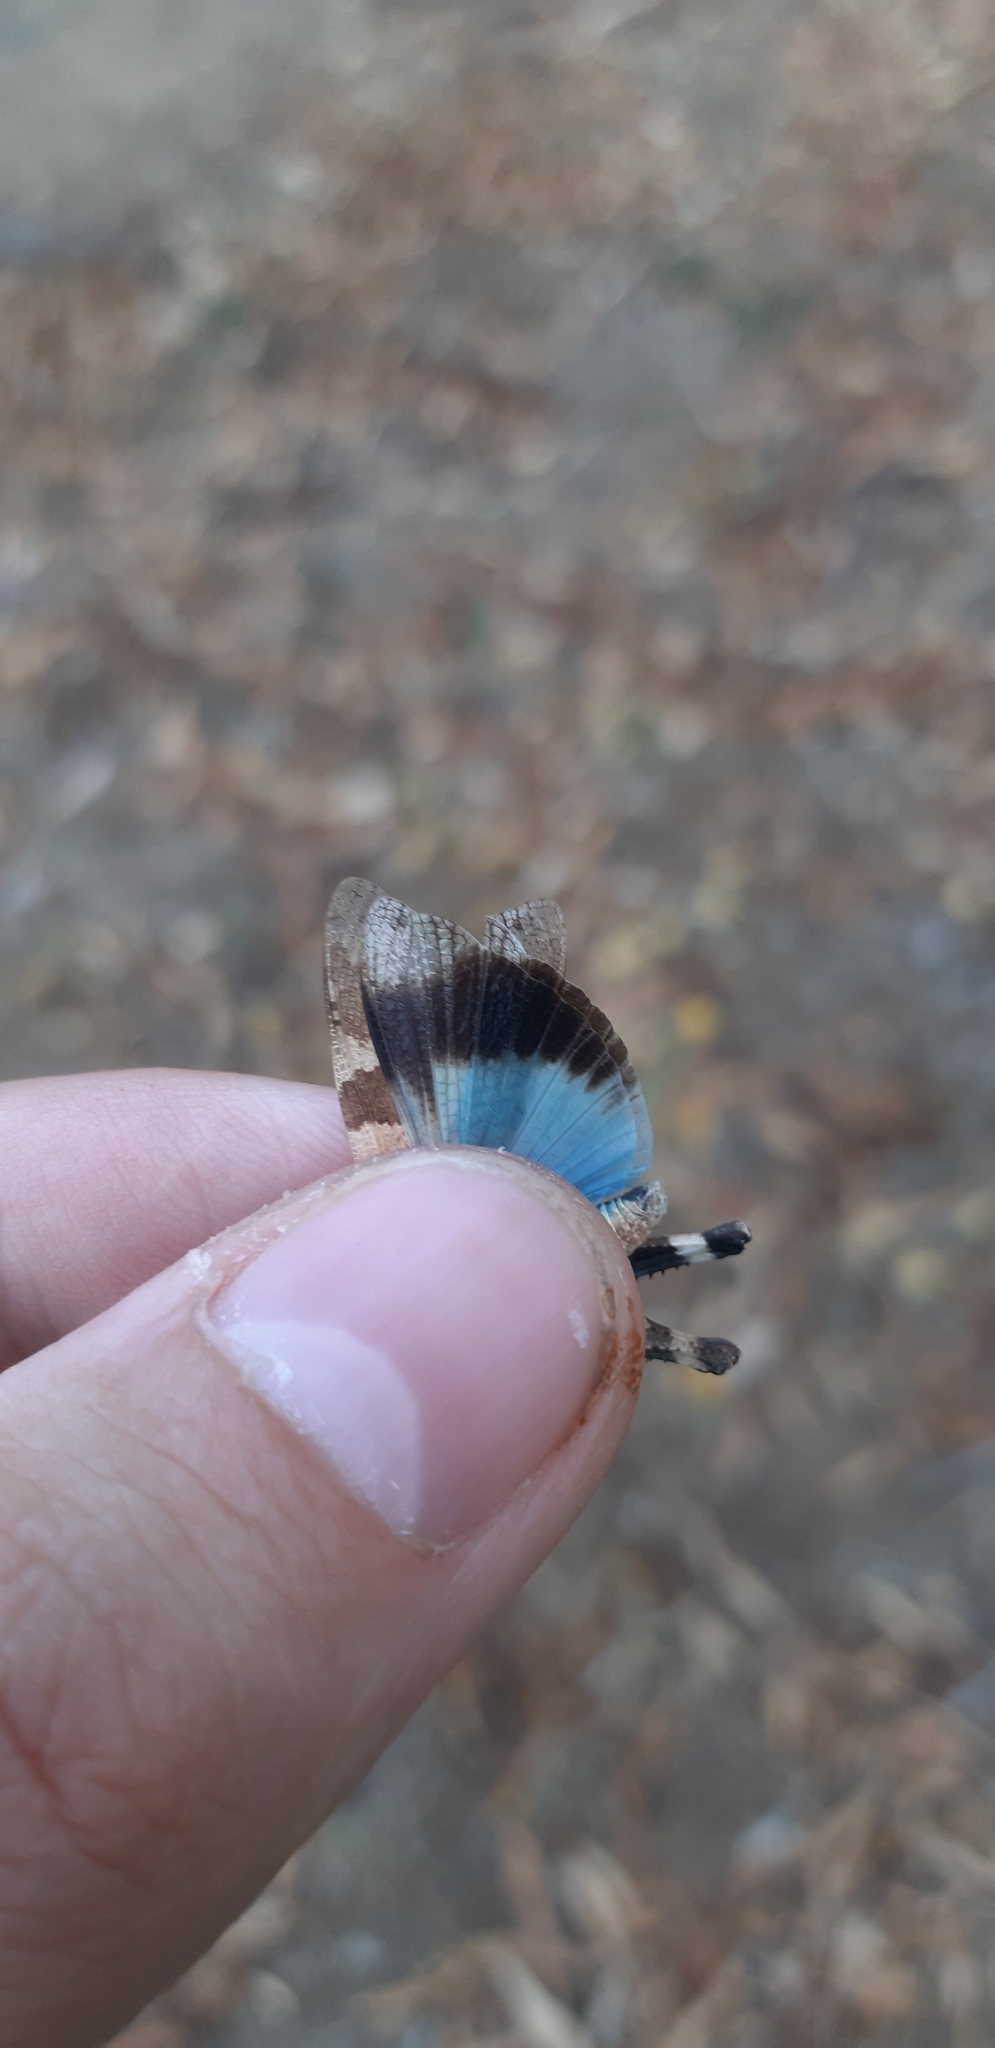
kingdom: Animalia
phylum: Arthropoda
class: Insecta
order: Orthoptera
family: Acrididae
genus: Oedipoda
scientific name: Oedipoda caerulescens
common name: Blue-winged grasshopper
